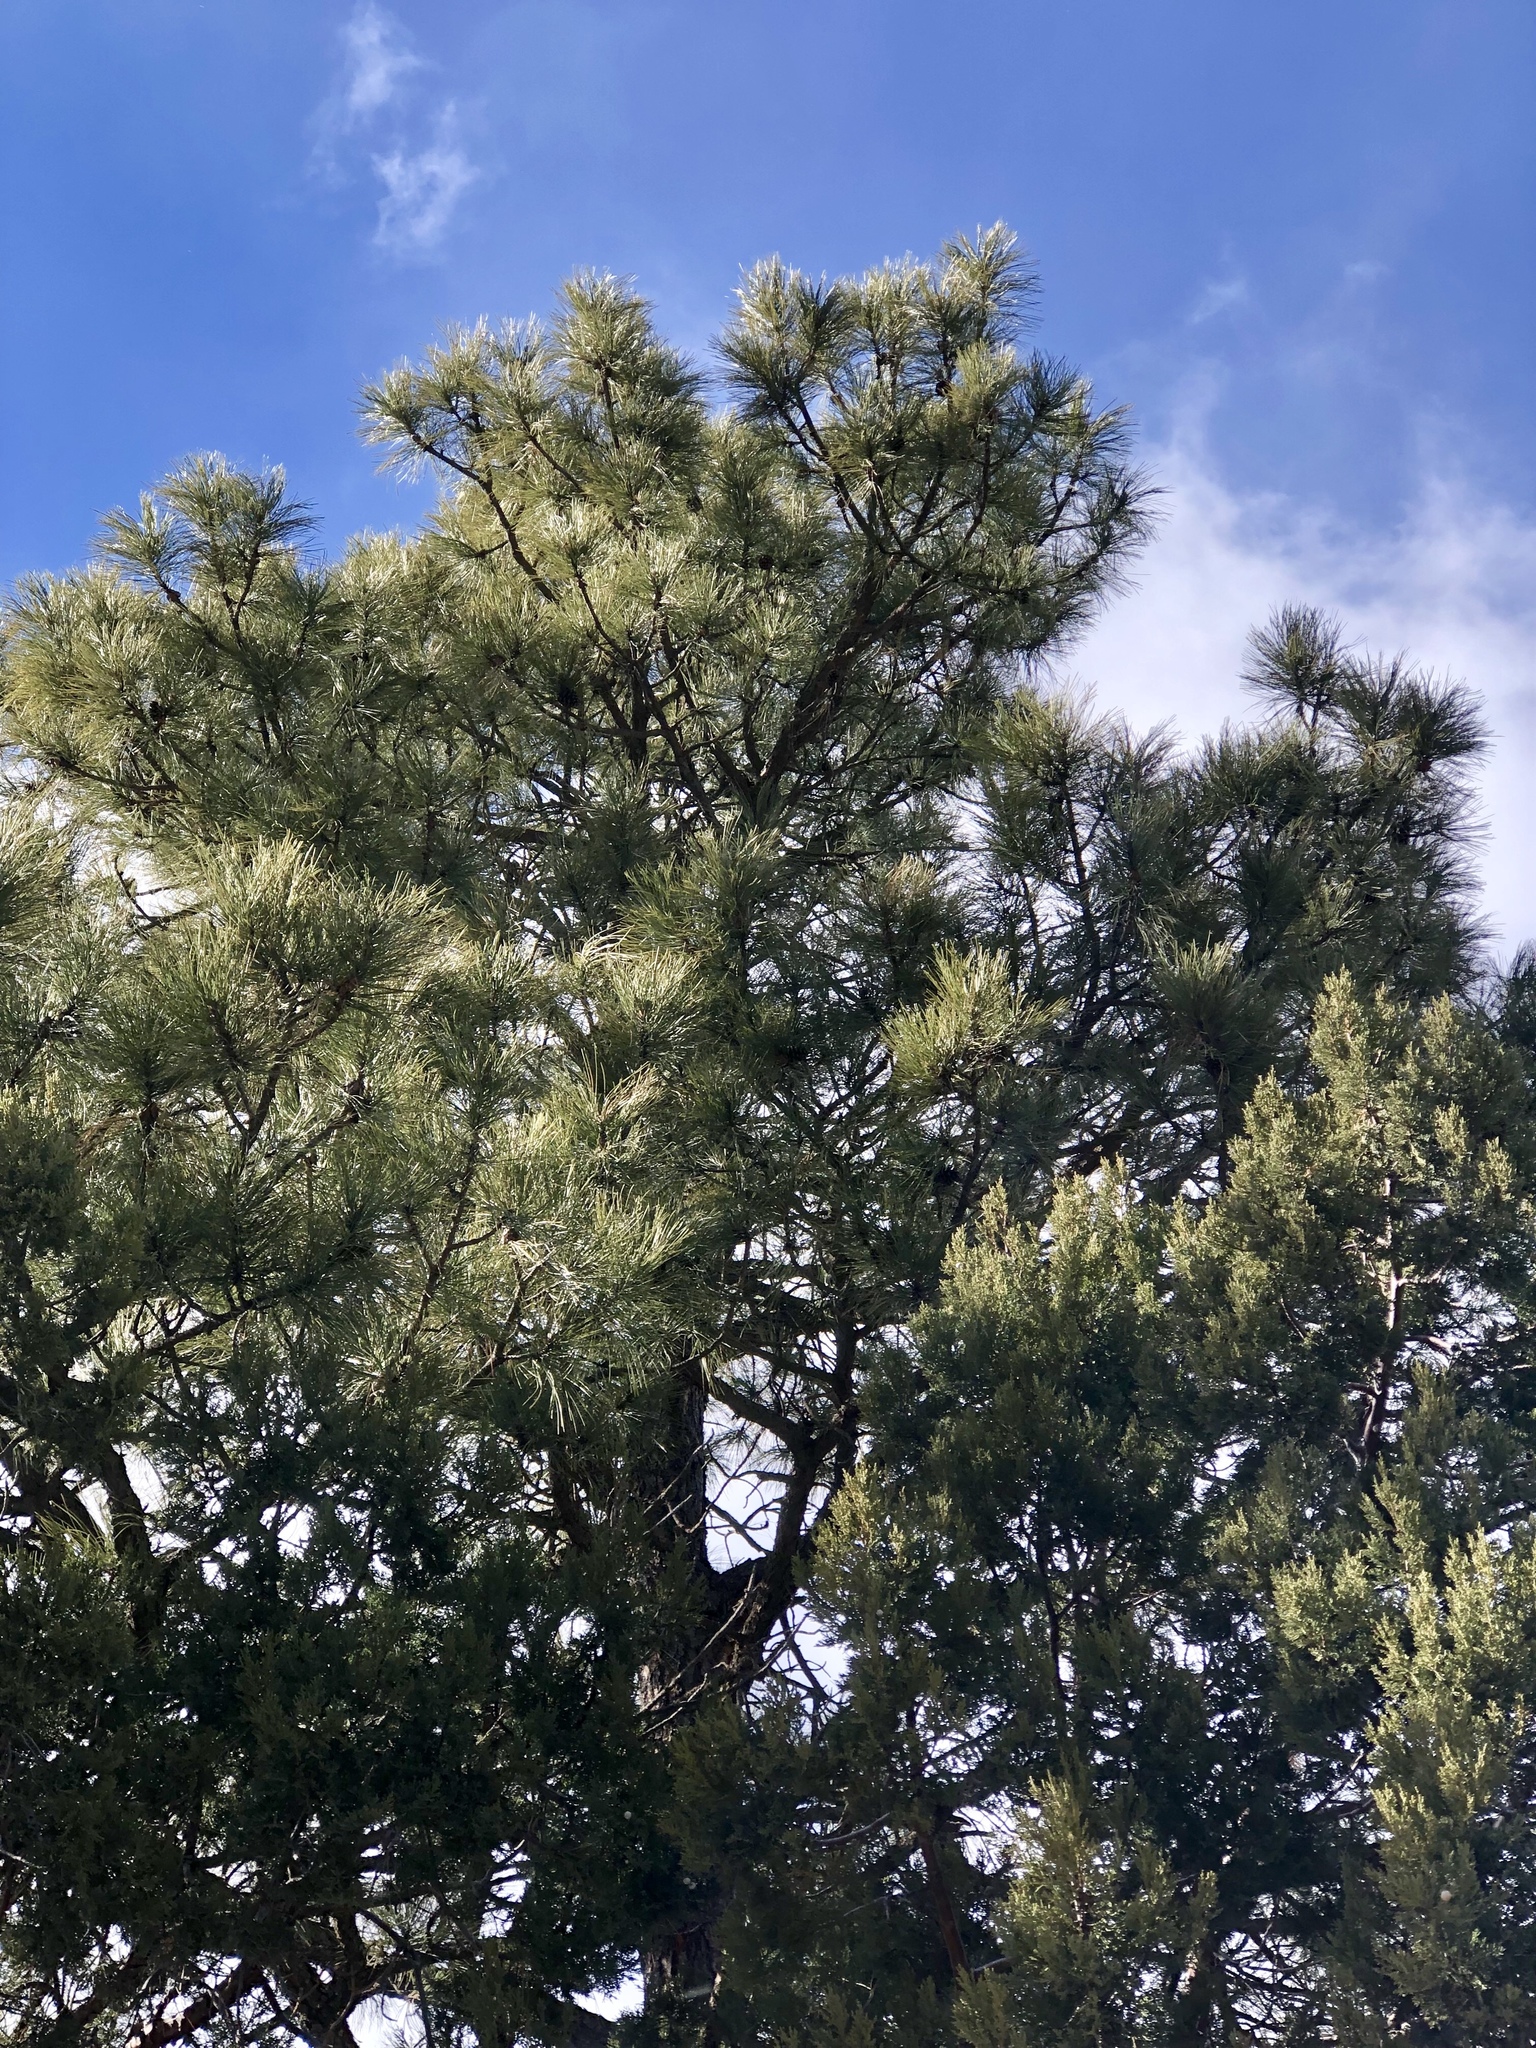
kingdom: Plantae
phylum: Tracheophyta
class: Pinopsida
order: Pinales
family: Pinaceae
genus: Pinus
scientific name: Pinus ponderosa
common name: Western yellow-pine
